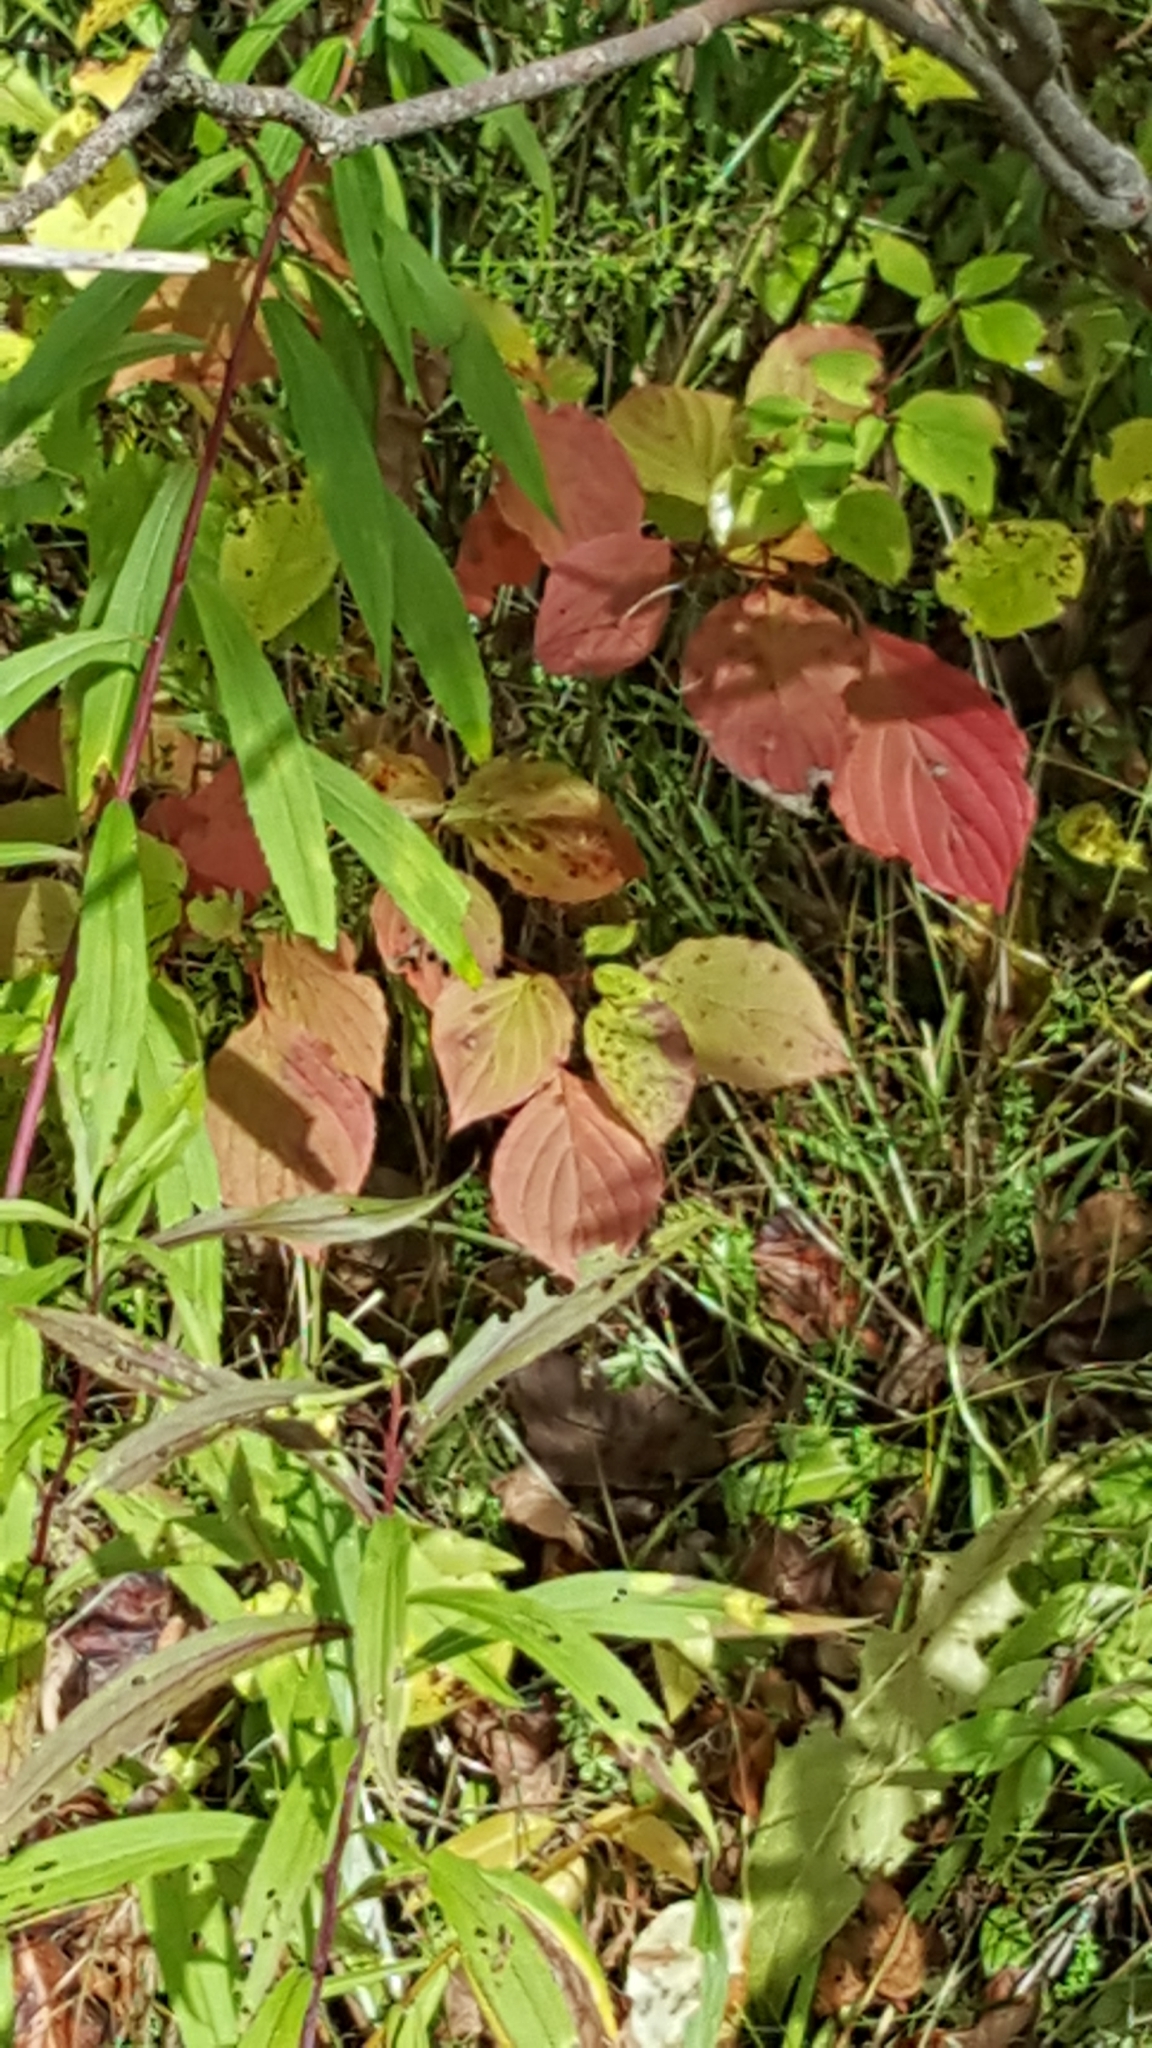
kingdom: Plantae
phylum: Tracheophyta
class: Magnoliopsida
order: Cornales
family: Cornaceae
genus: Cornus
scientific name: Cornus alternifolia
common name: Pagoda dogwood
